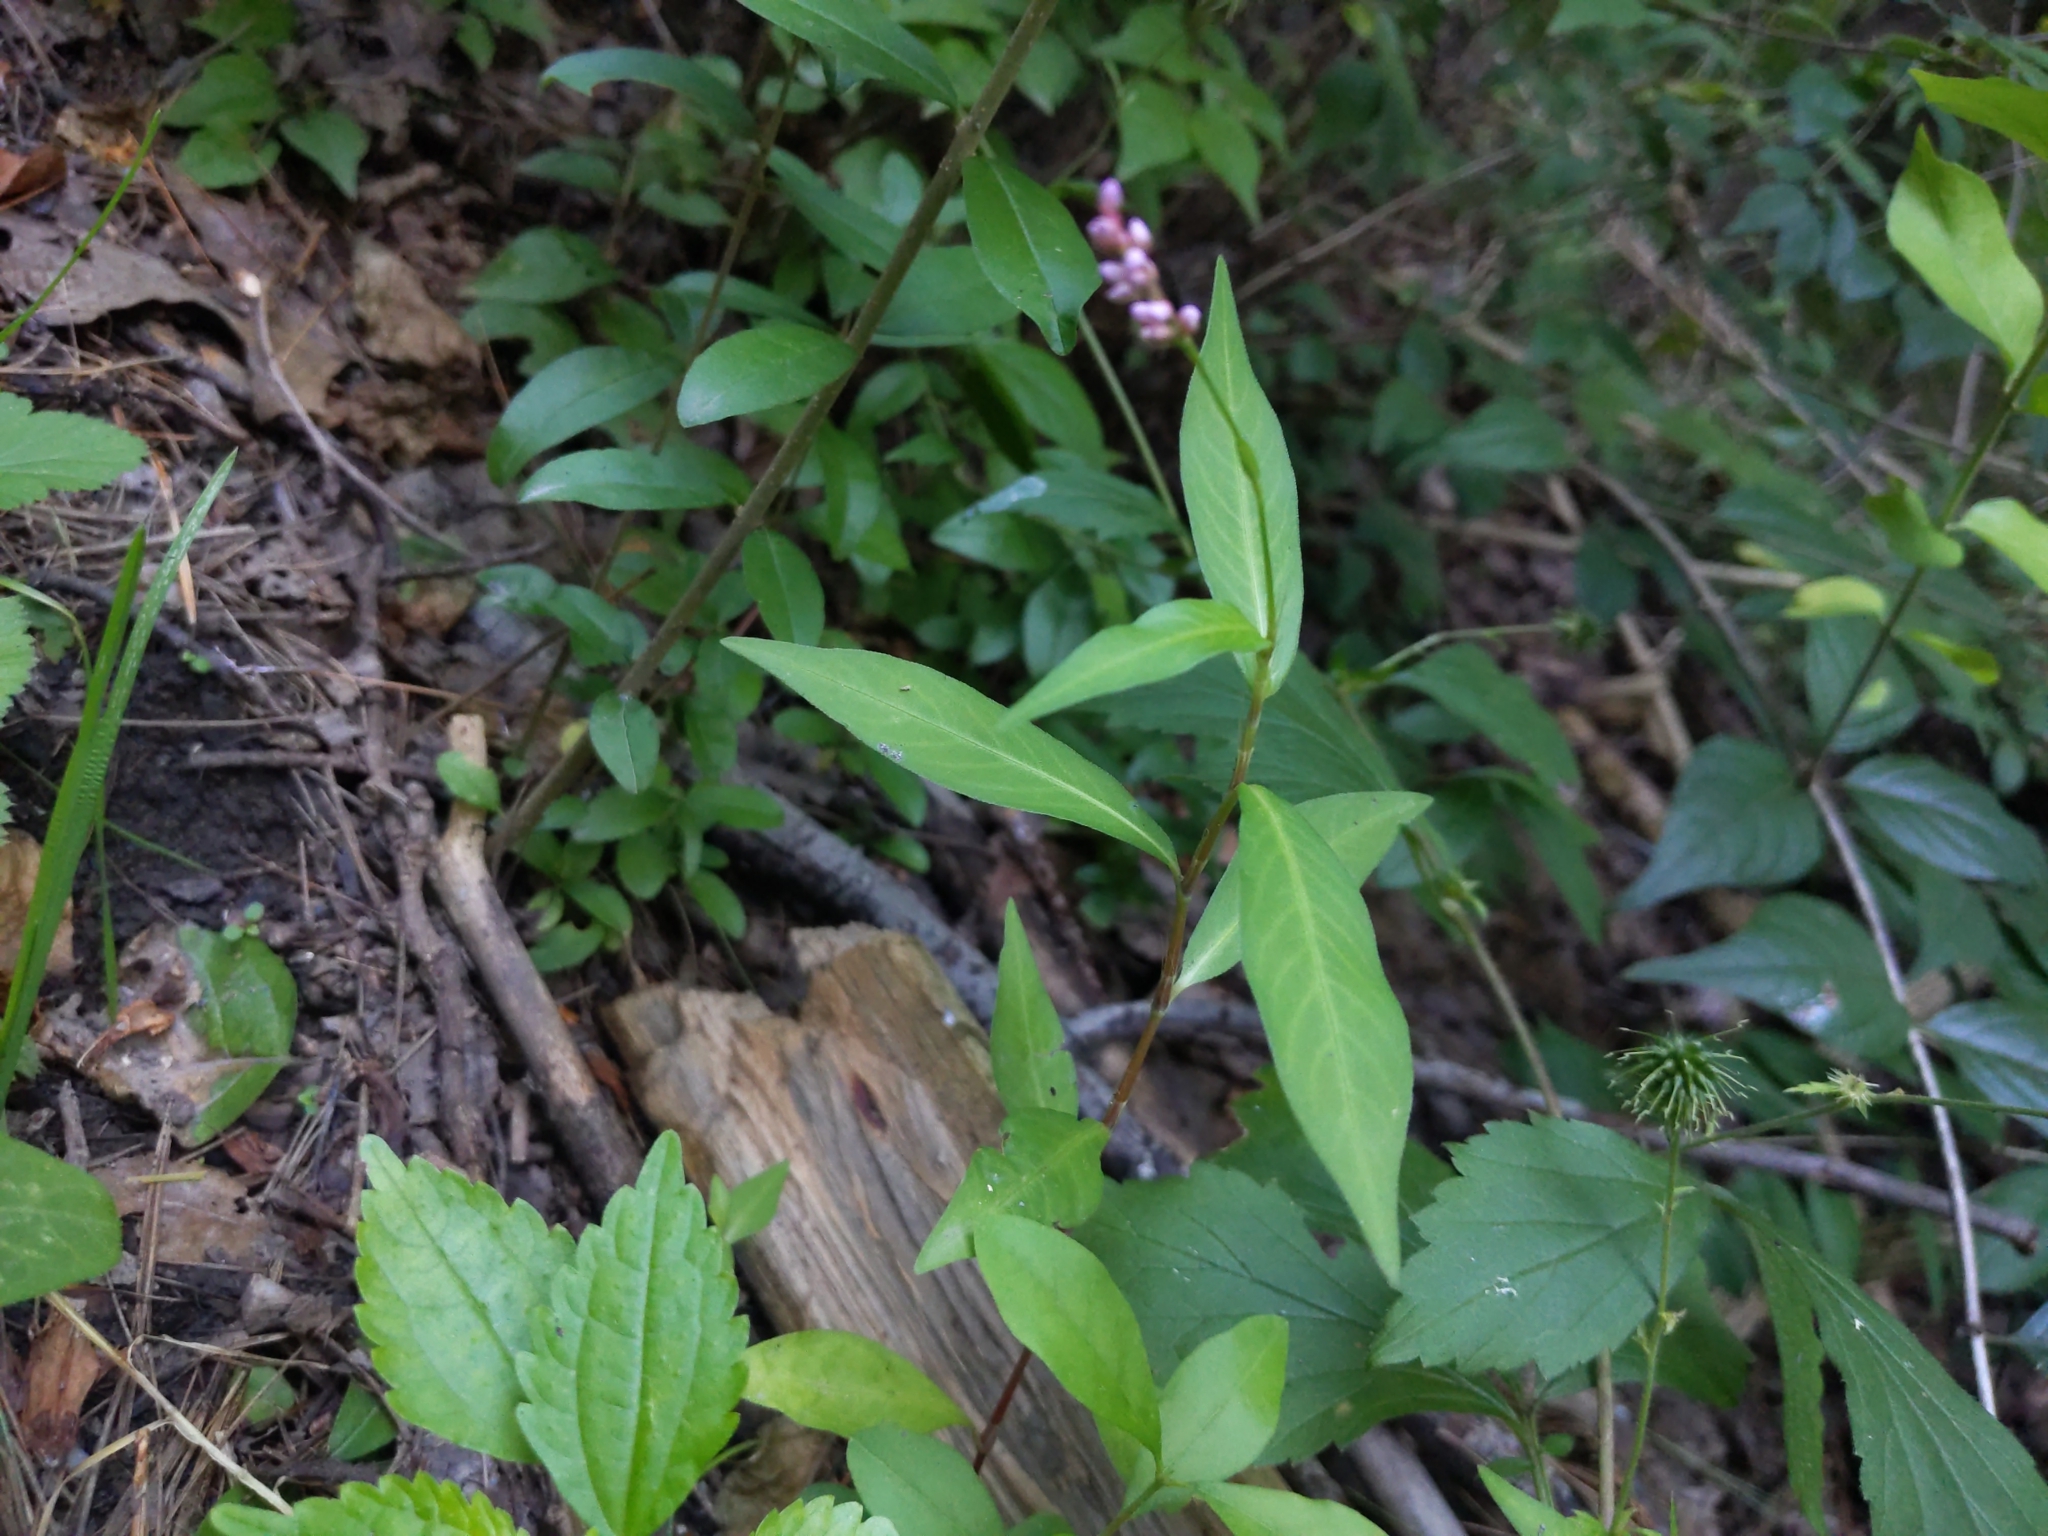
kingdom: Plantae
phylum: Tracheophyta
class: Magnoliopsida
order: Caryophyllales
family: Polygonaceae
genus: Persicaria
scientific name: Persicaria longiseta
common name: Bristly lady's-thumb
